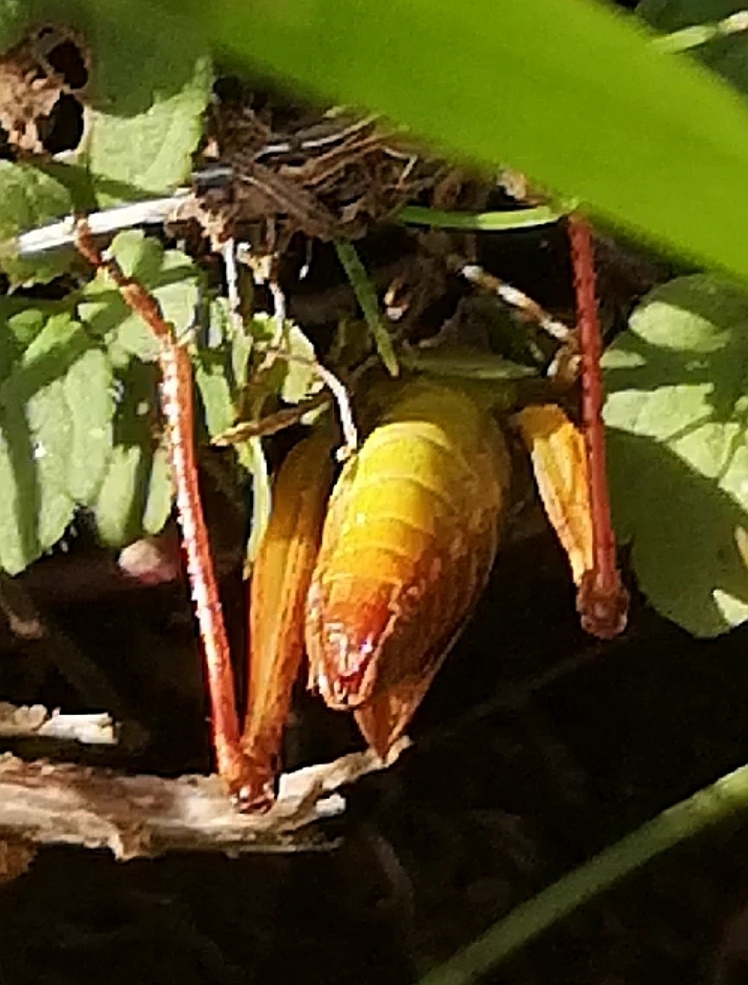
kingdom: Animalia
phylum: Arthropoda
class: Insecta
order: Orthoptera
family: Acrididae
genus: Gomphocerippus
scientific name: Gomphocerippus rufus
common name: Rufous grasshopper
